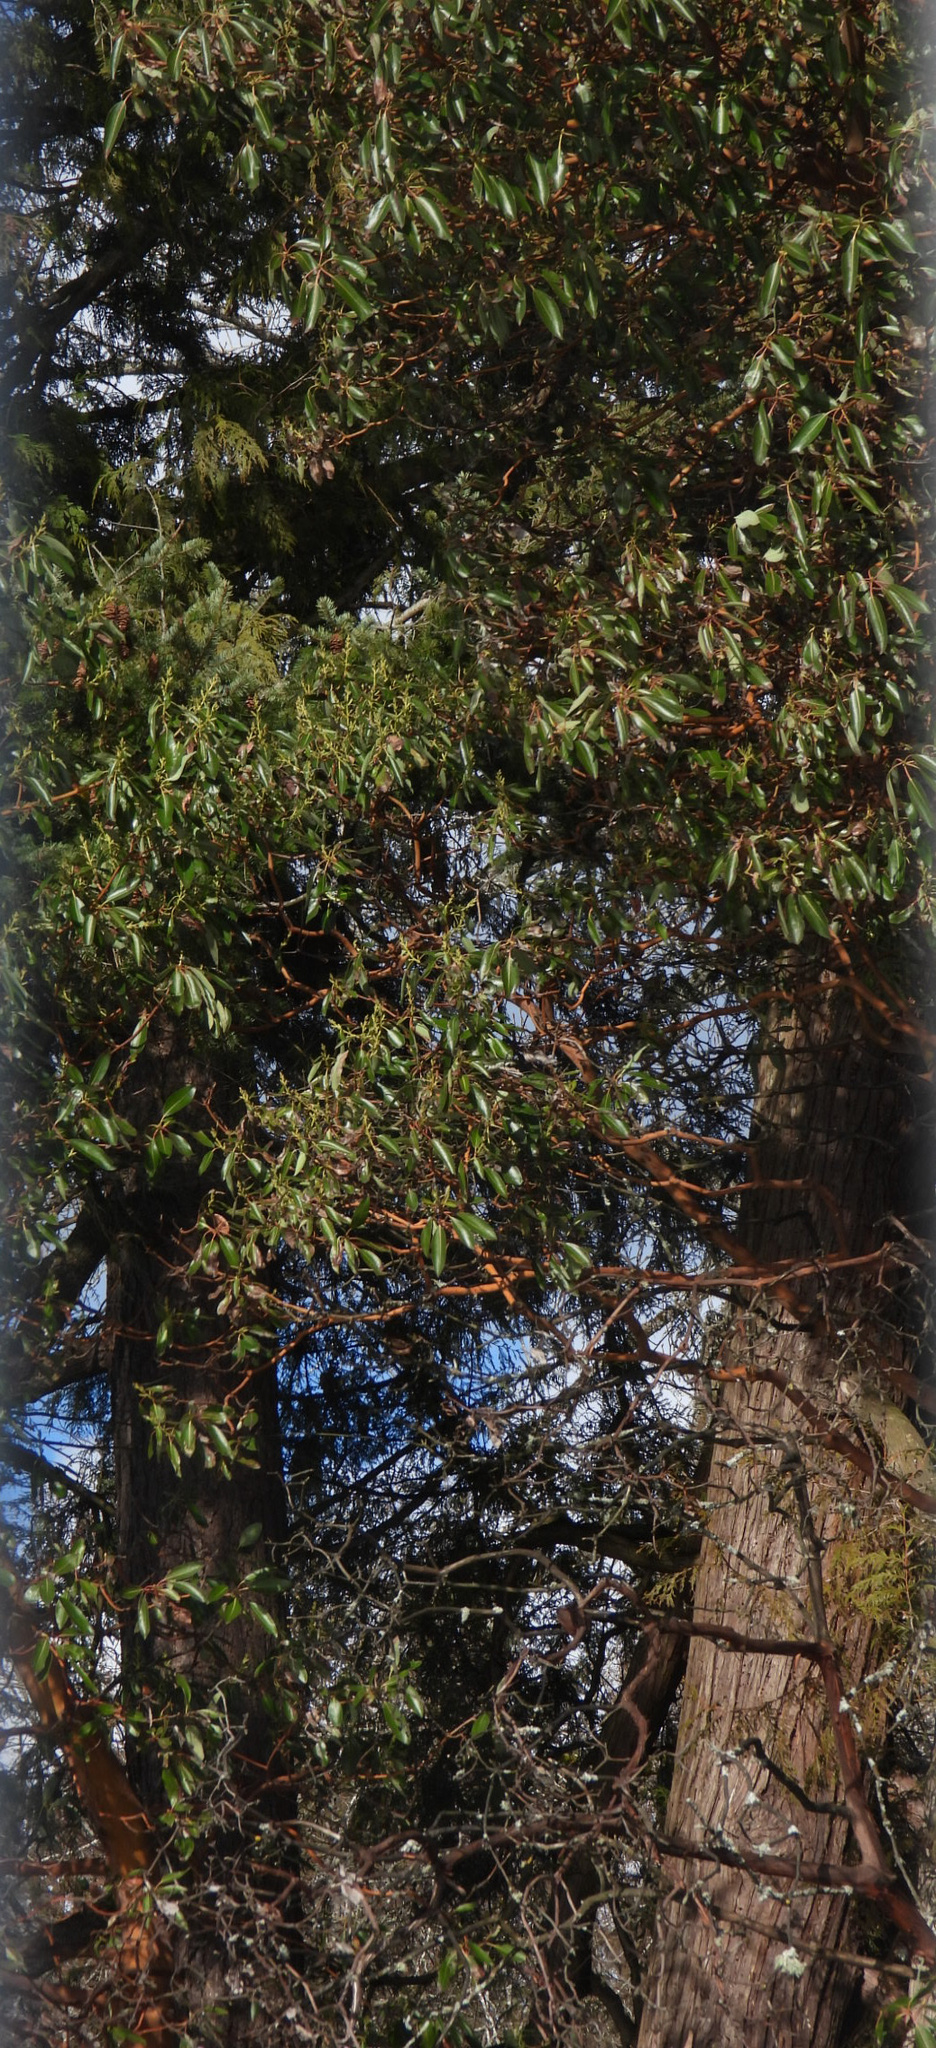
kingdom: Plantae
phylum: Tracheophyta
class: Magnoliopsida
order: Ericales
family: Ericaceae
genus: Arbutus
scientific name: Arbutus menziesii
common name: Pacific madrone
